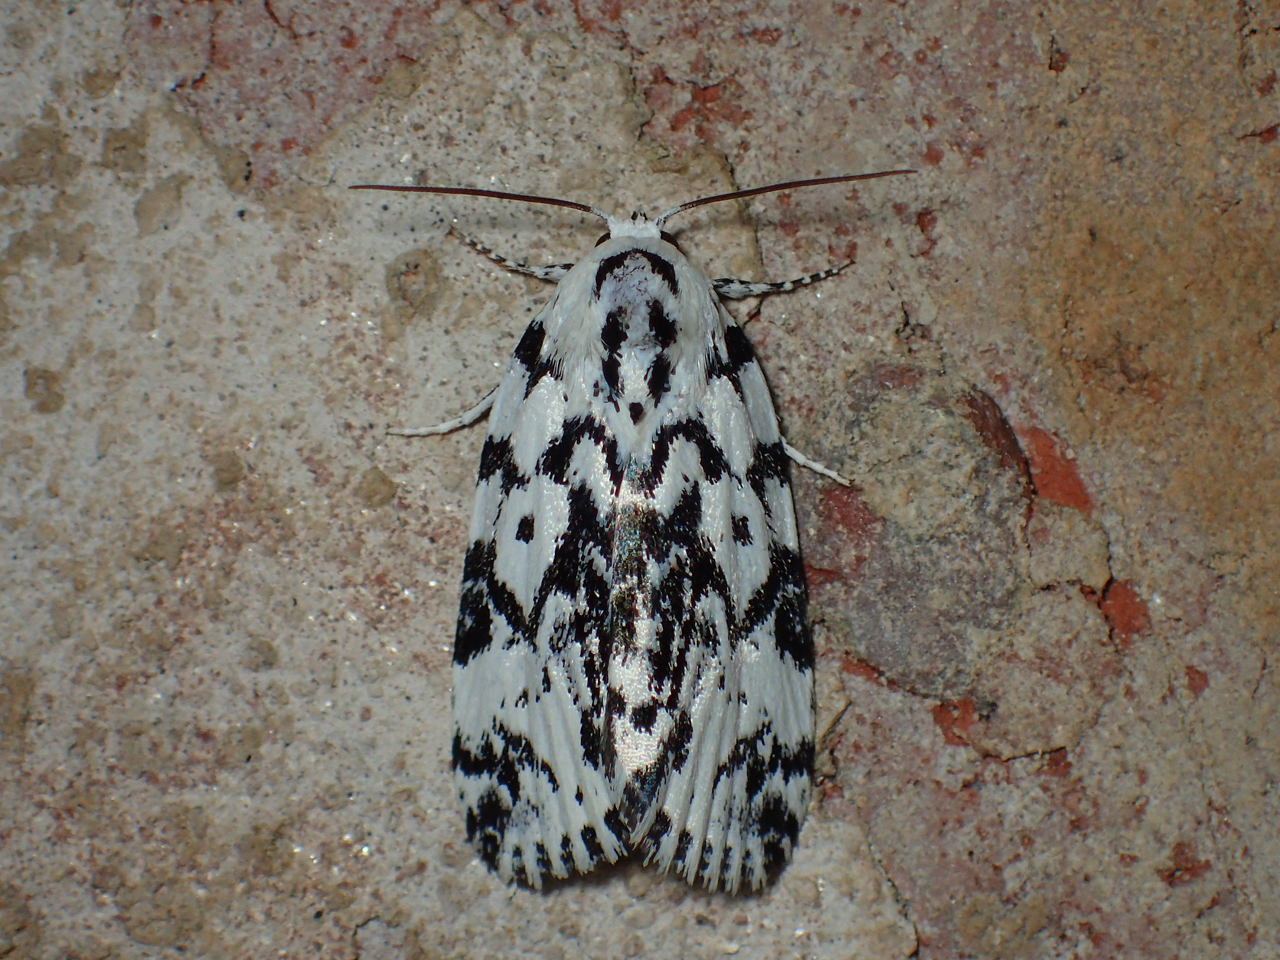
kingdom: Animalia
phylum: Arthropoda
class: Insecta
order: Lepidoptera
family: Noctuidae
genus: Polygrammate
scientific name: Polygrammate hebraeicum
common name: Hebrew moth
